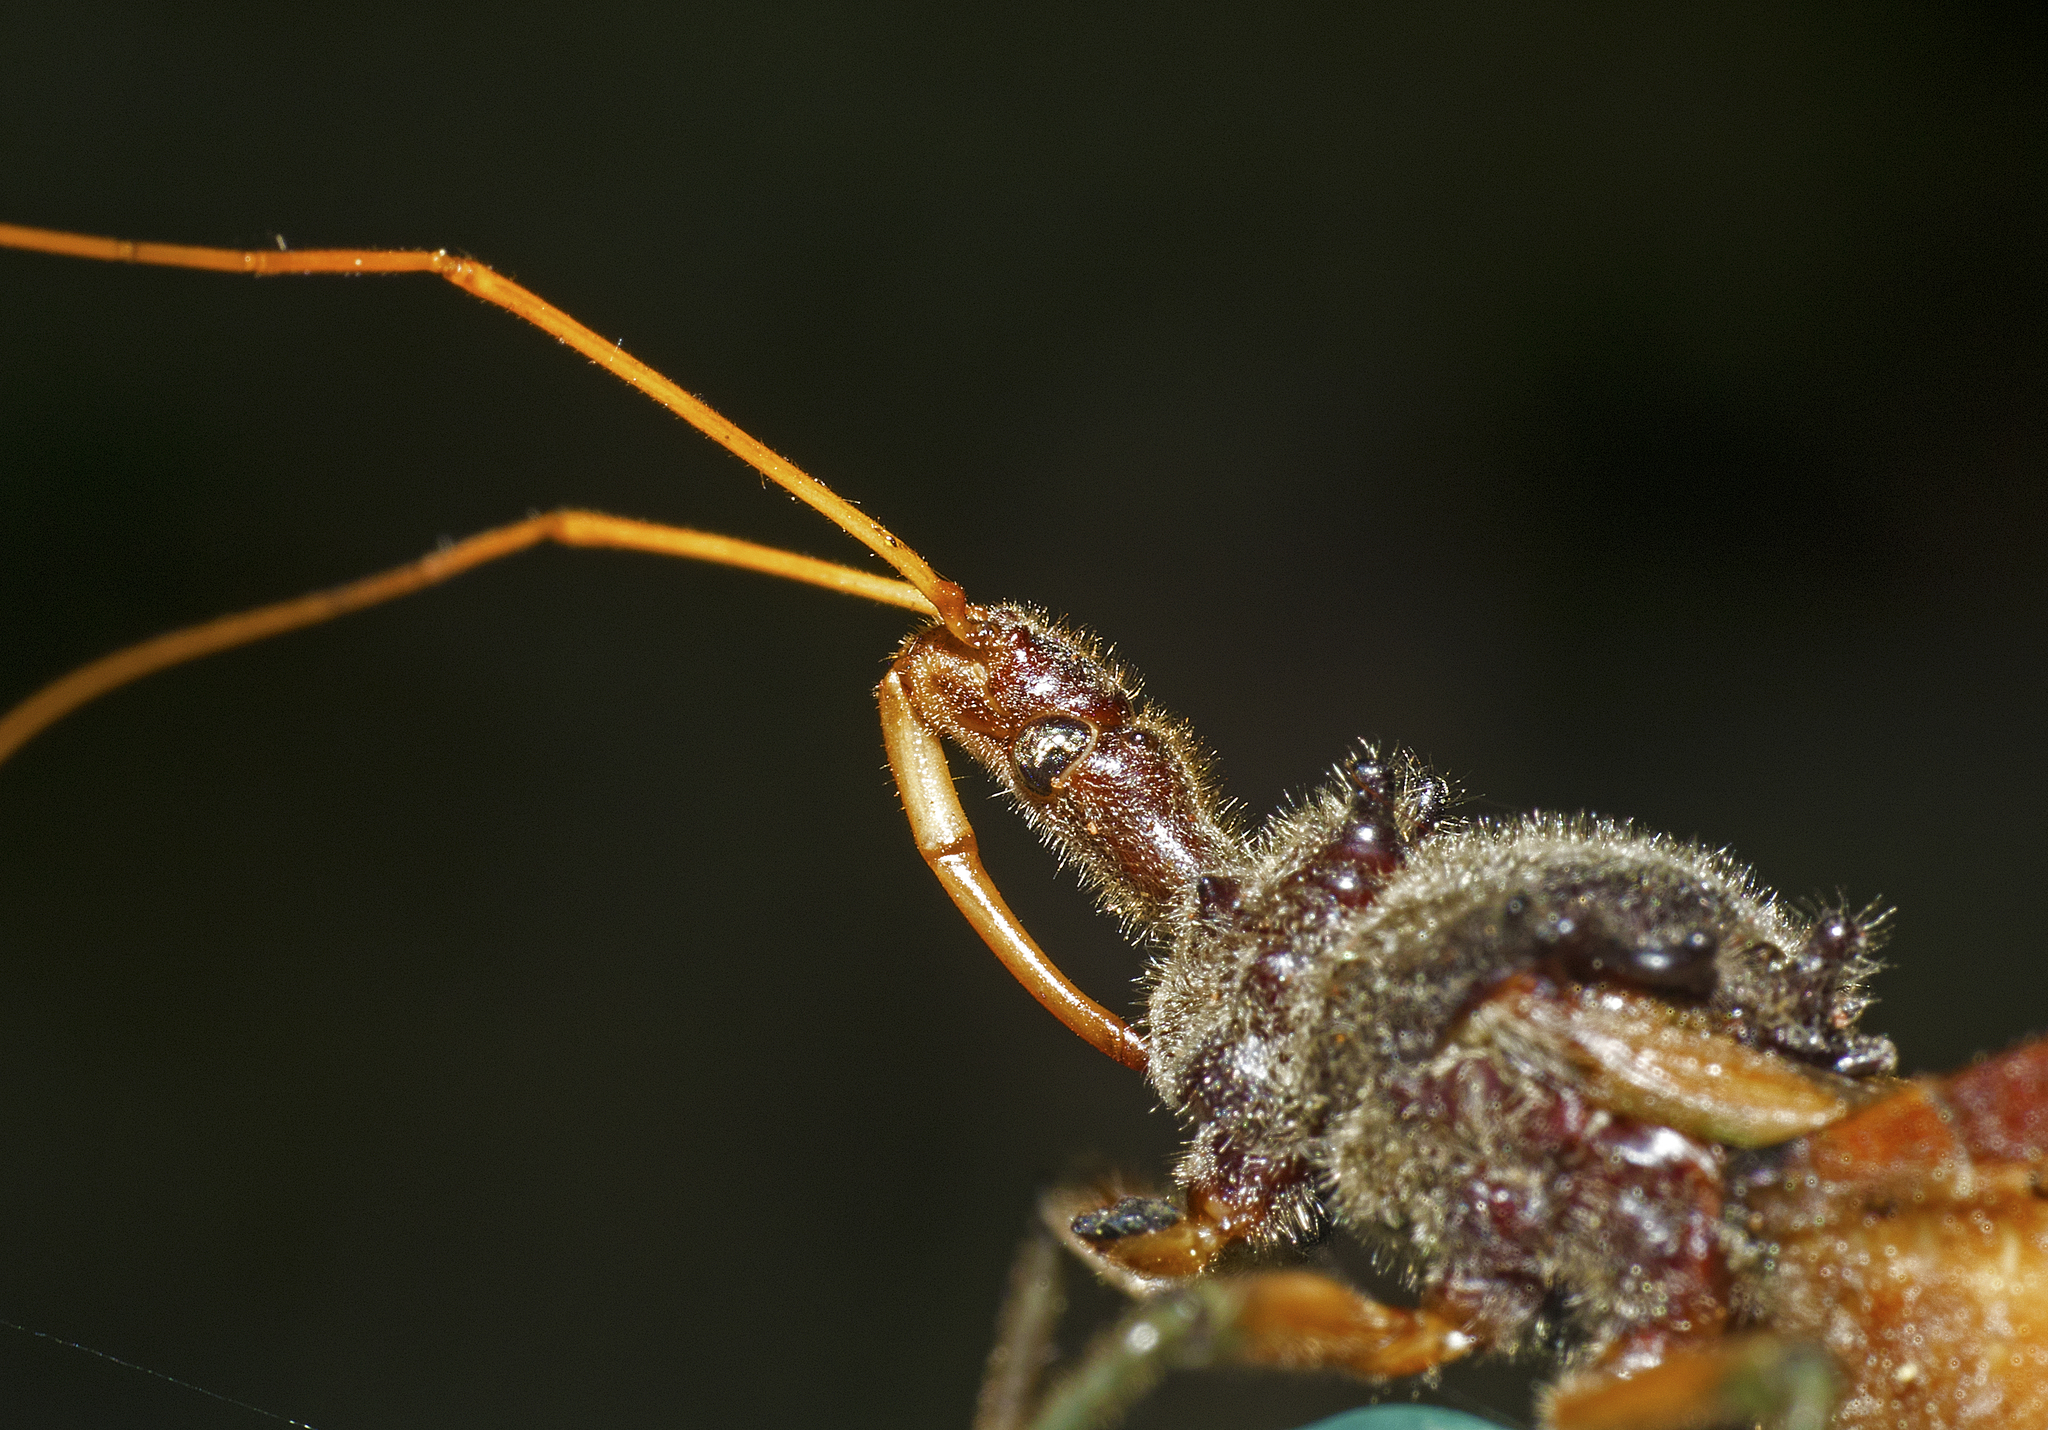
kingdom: Animalia
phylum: Arthropoda
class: Insecta
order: Hemiptera
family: Reduviidae
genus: Pristhesancus
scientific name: Pristhesancus plagipennis
